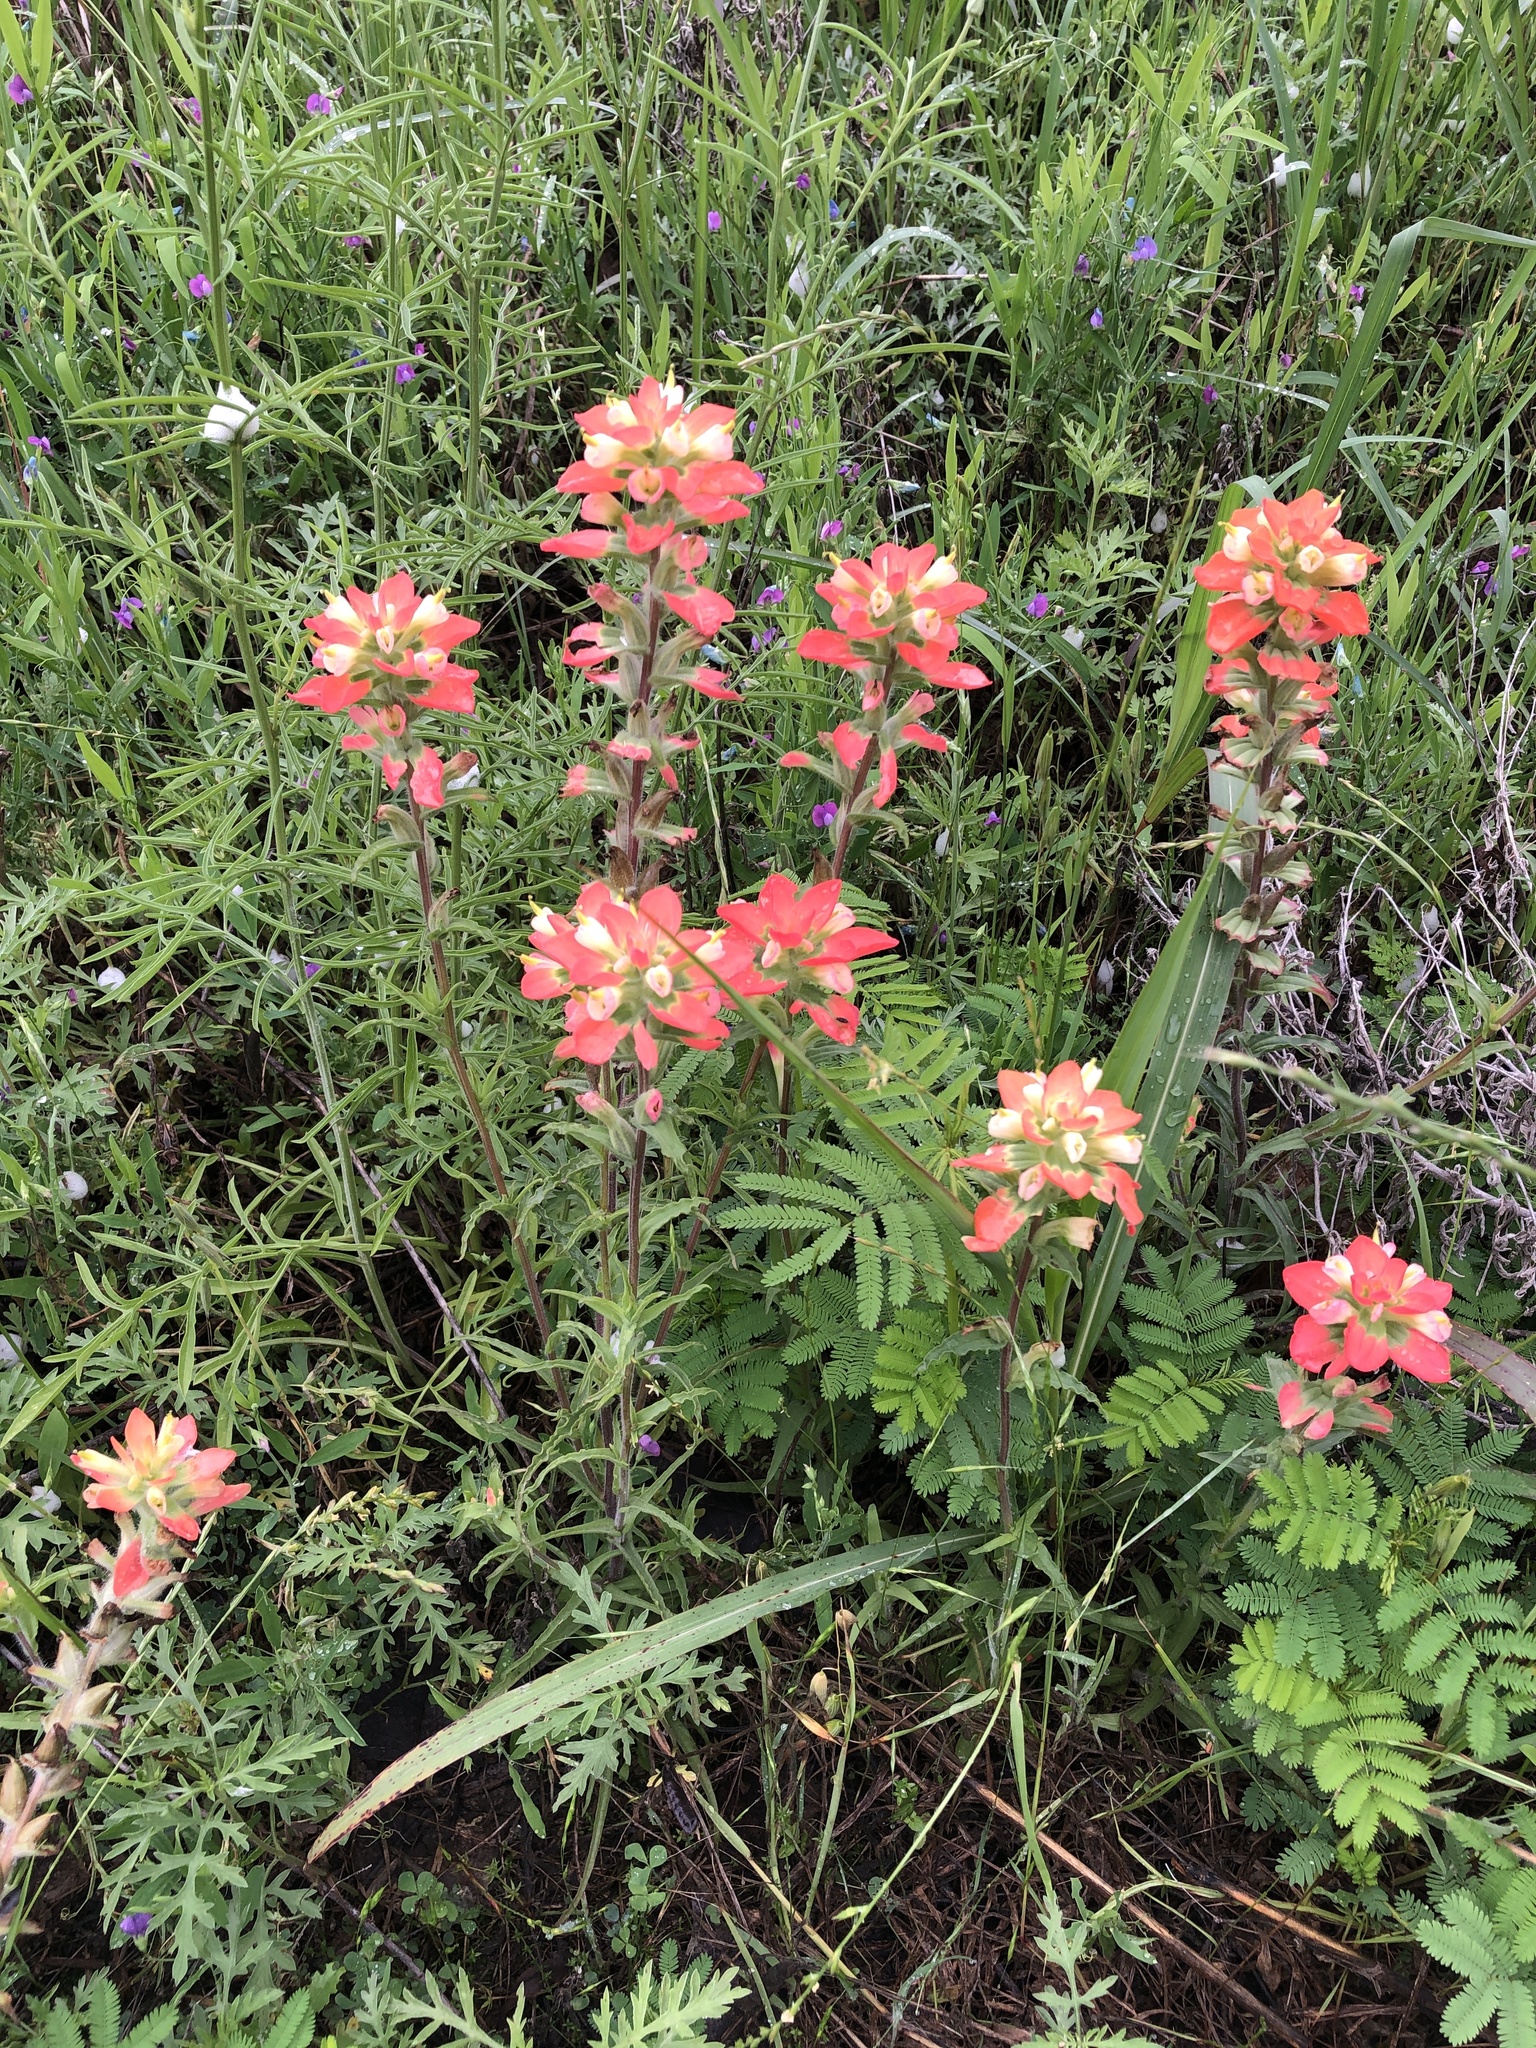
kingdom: Plantae
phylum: Tracheophyta
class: Magnoliopsida
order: Lamiales
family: Orobanchaceae
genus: Castilleja
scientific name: Castilleja indivisa
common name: Texas paintbrush
